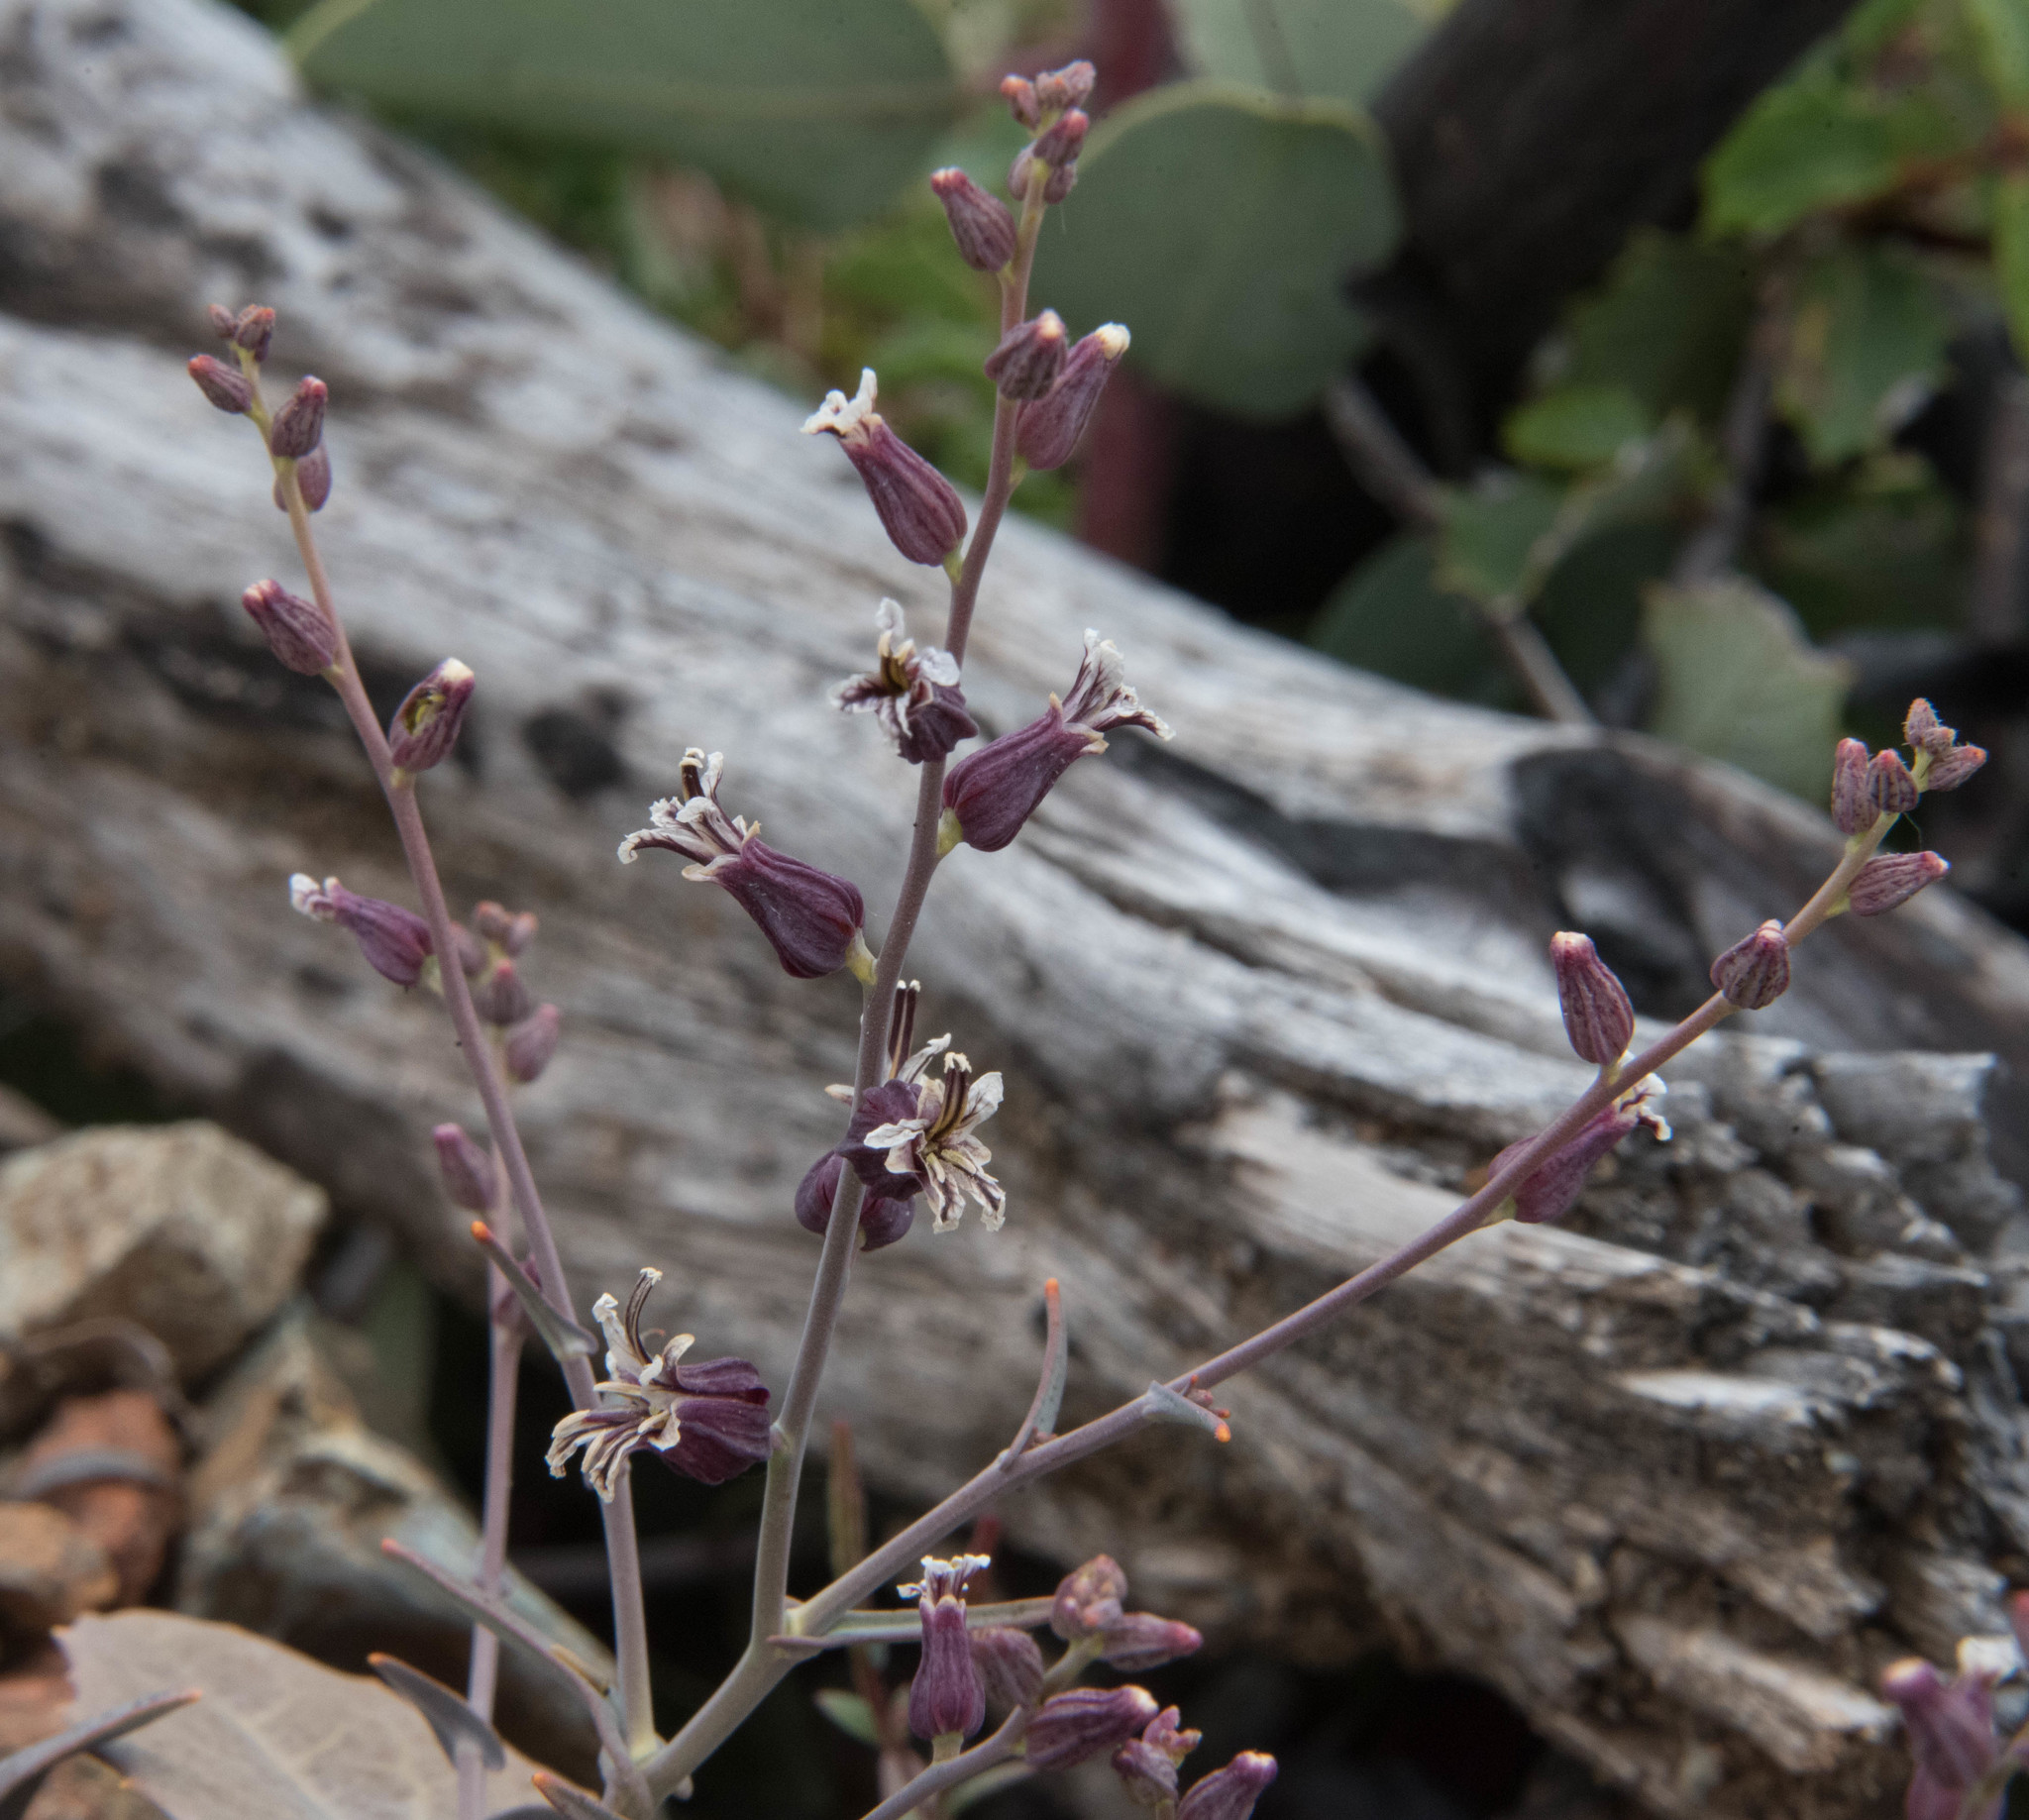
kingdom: Plantae
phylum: Tracheophyta
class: Magnoliopsida
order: Brassicales
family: Brassicaceae
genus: Streptanthus
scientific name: Streptanthus breweri
